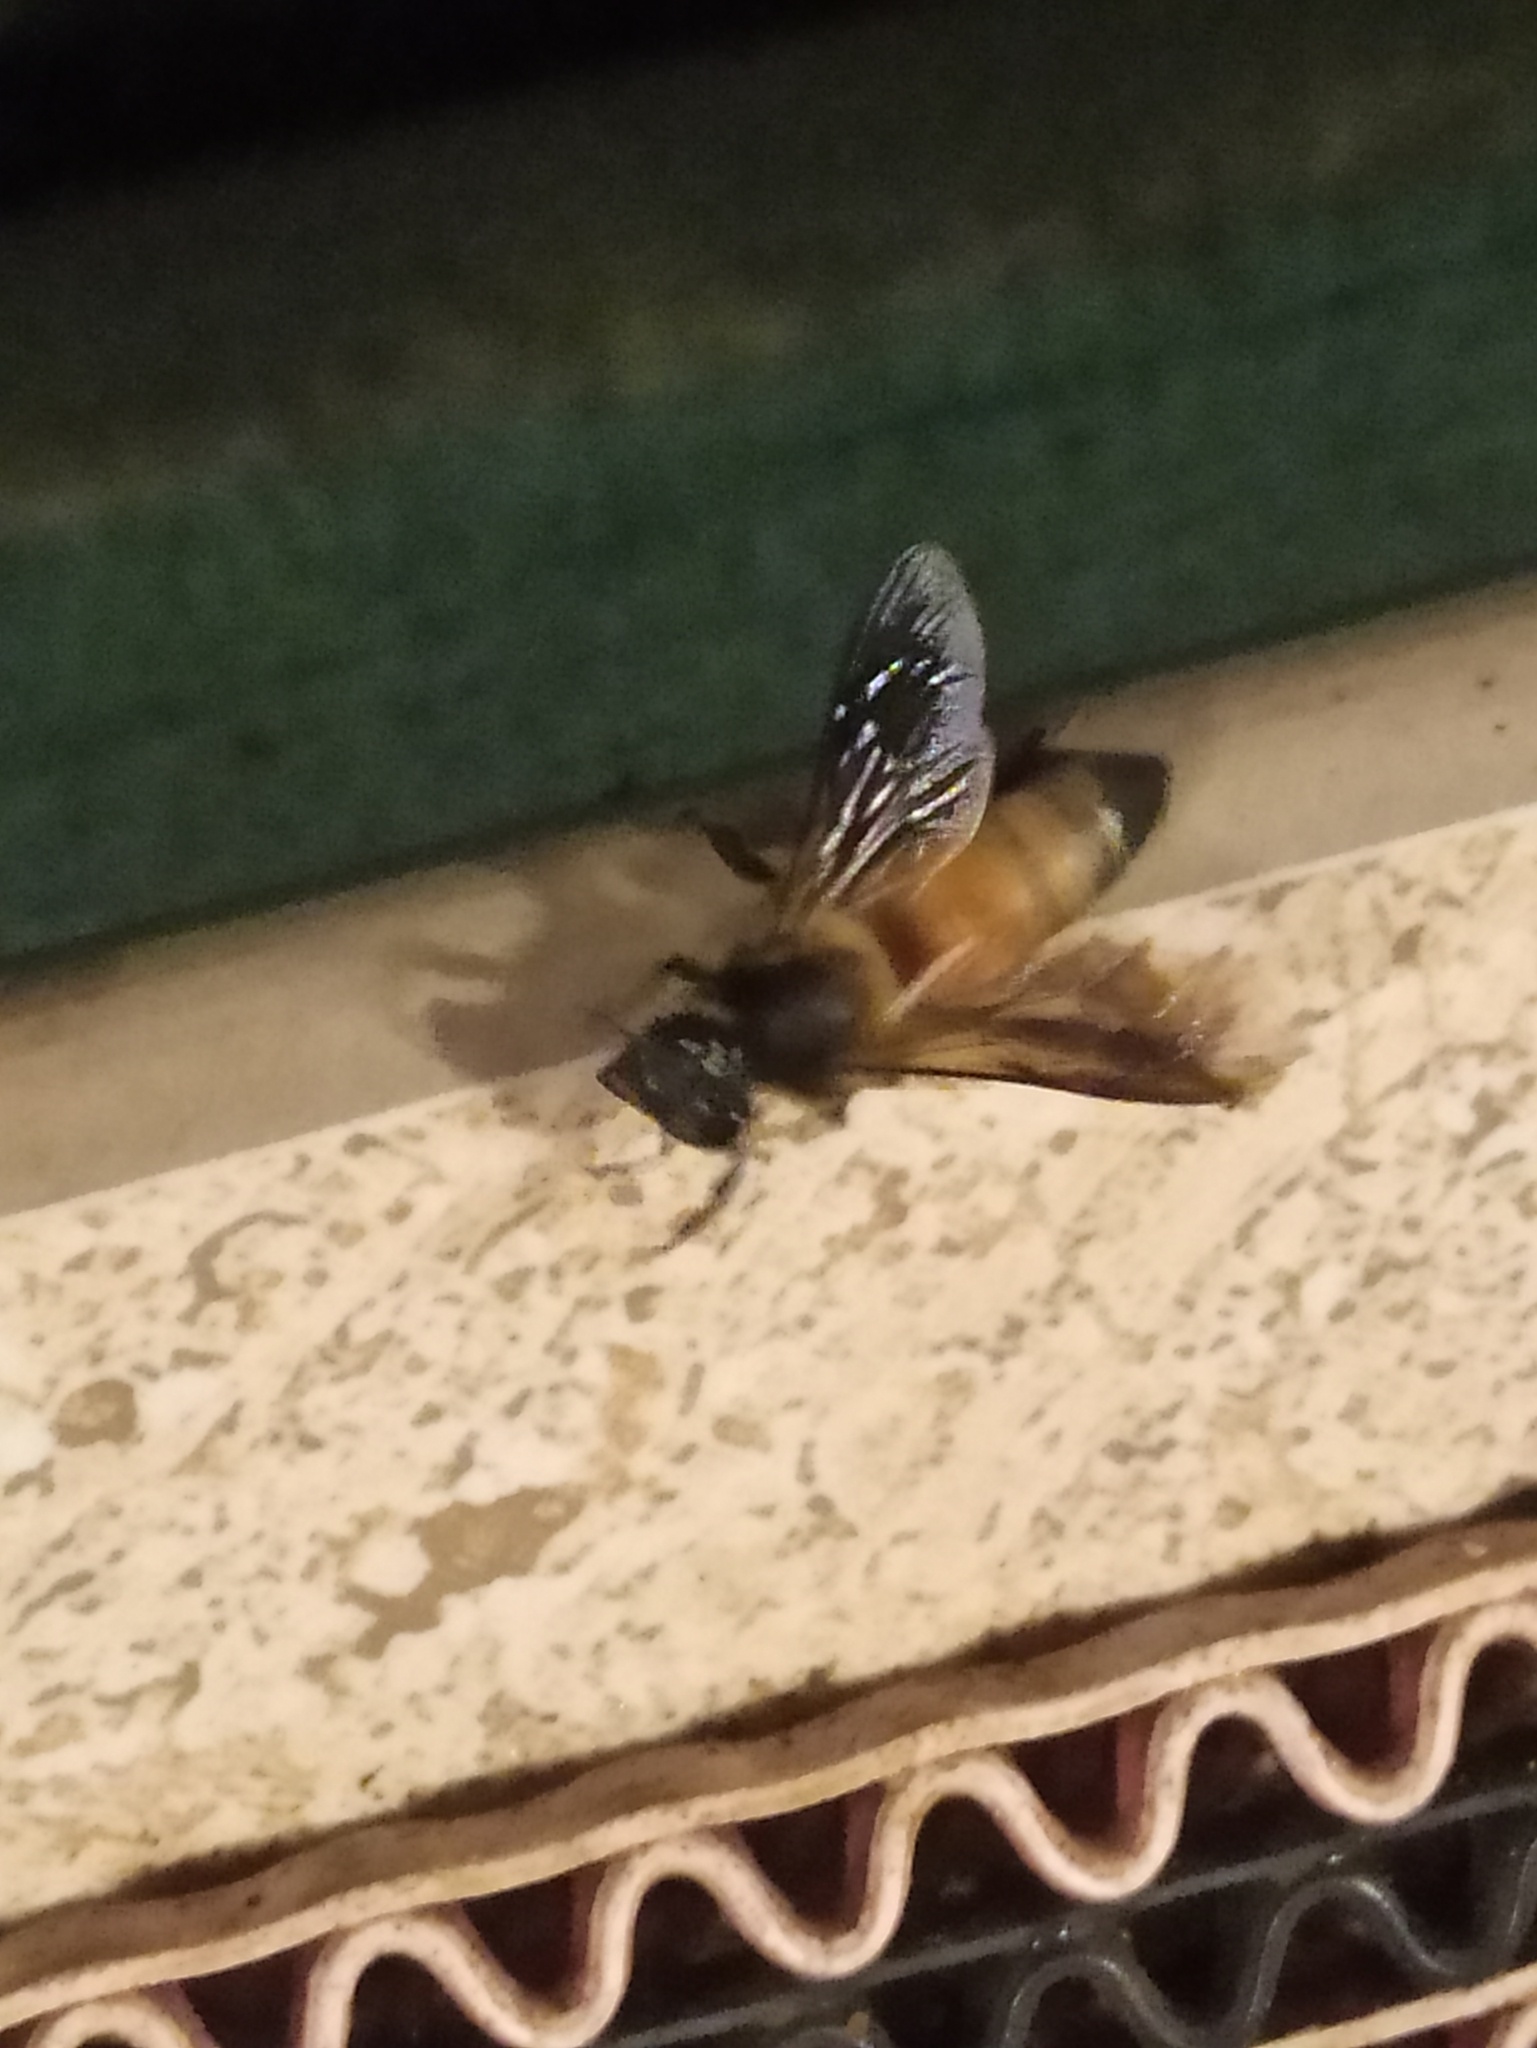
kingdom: Animalia
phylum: Arthropoda
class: Insecta
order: Hymenoptera
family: Apidae
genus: Apis
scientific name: Apis dorsata
